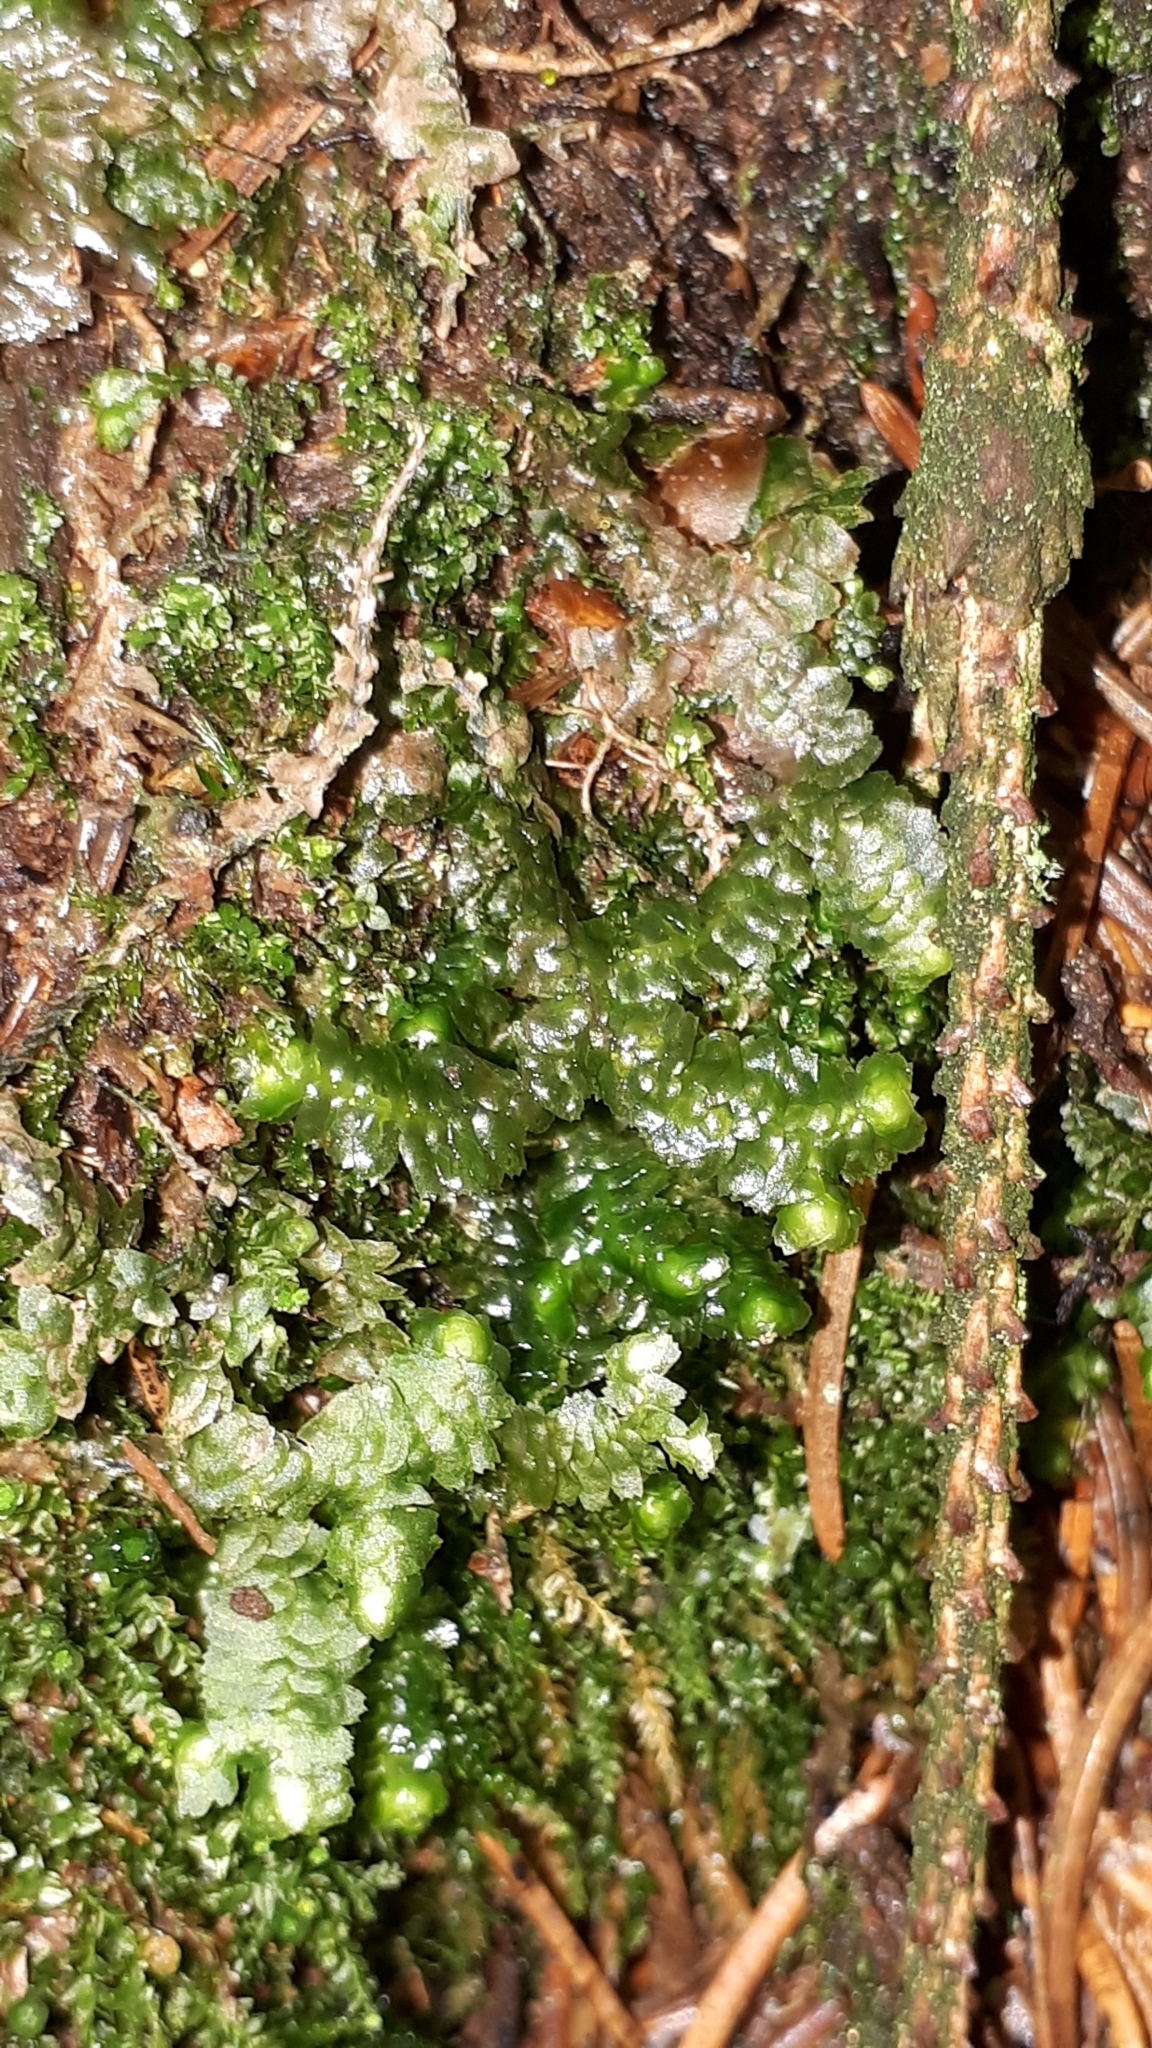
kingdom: Plantae
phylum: Marchantiophyta
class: Jungermanniopsida
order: Jungermanniales
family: Lepidoziaceae
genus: Bazzania
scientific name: Bazzania trilobata
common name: Three-lobed whipwort
